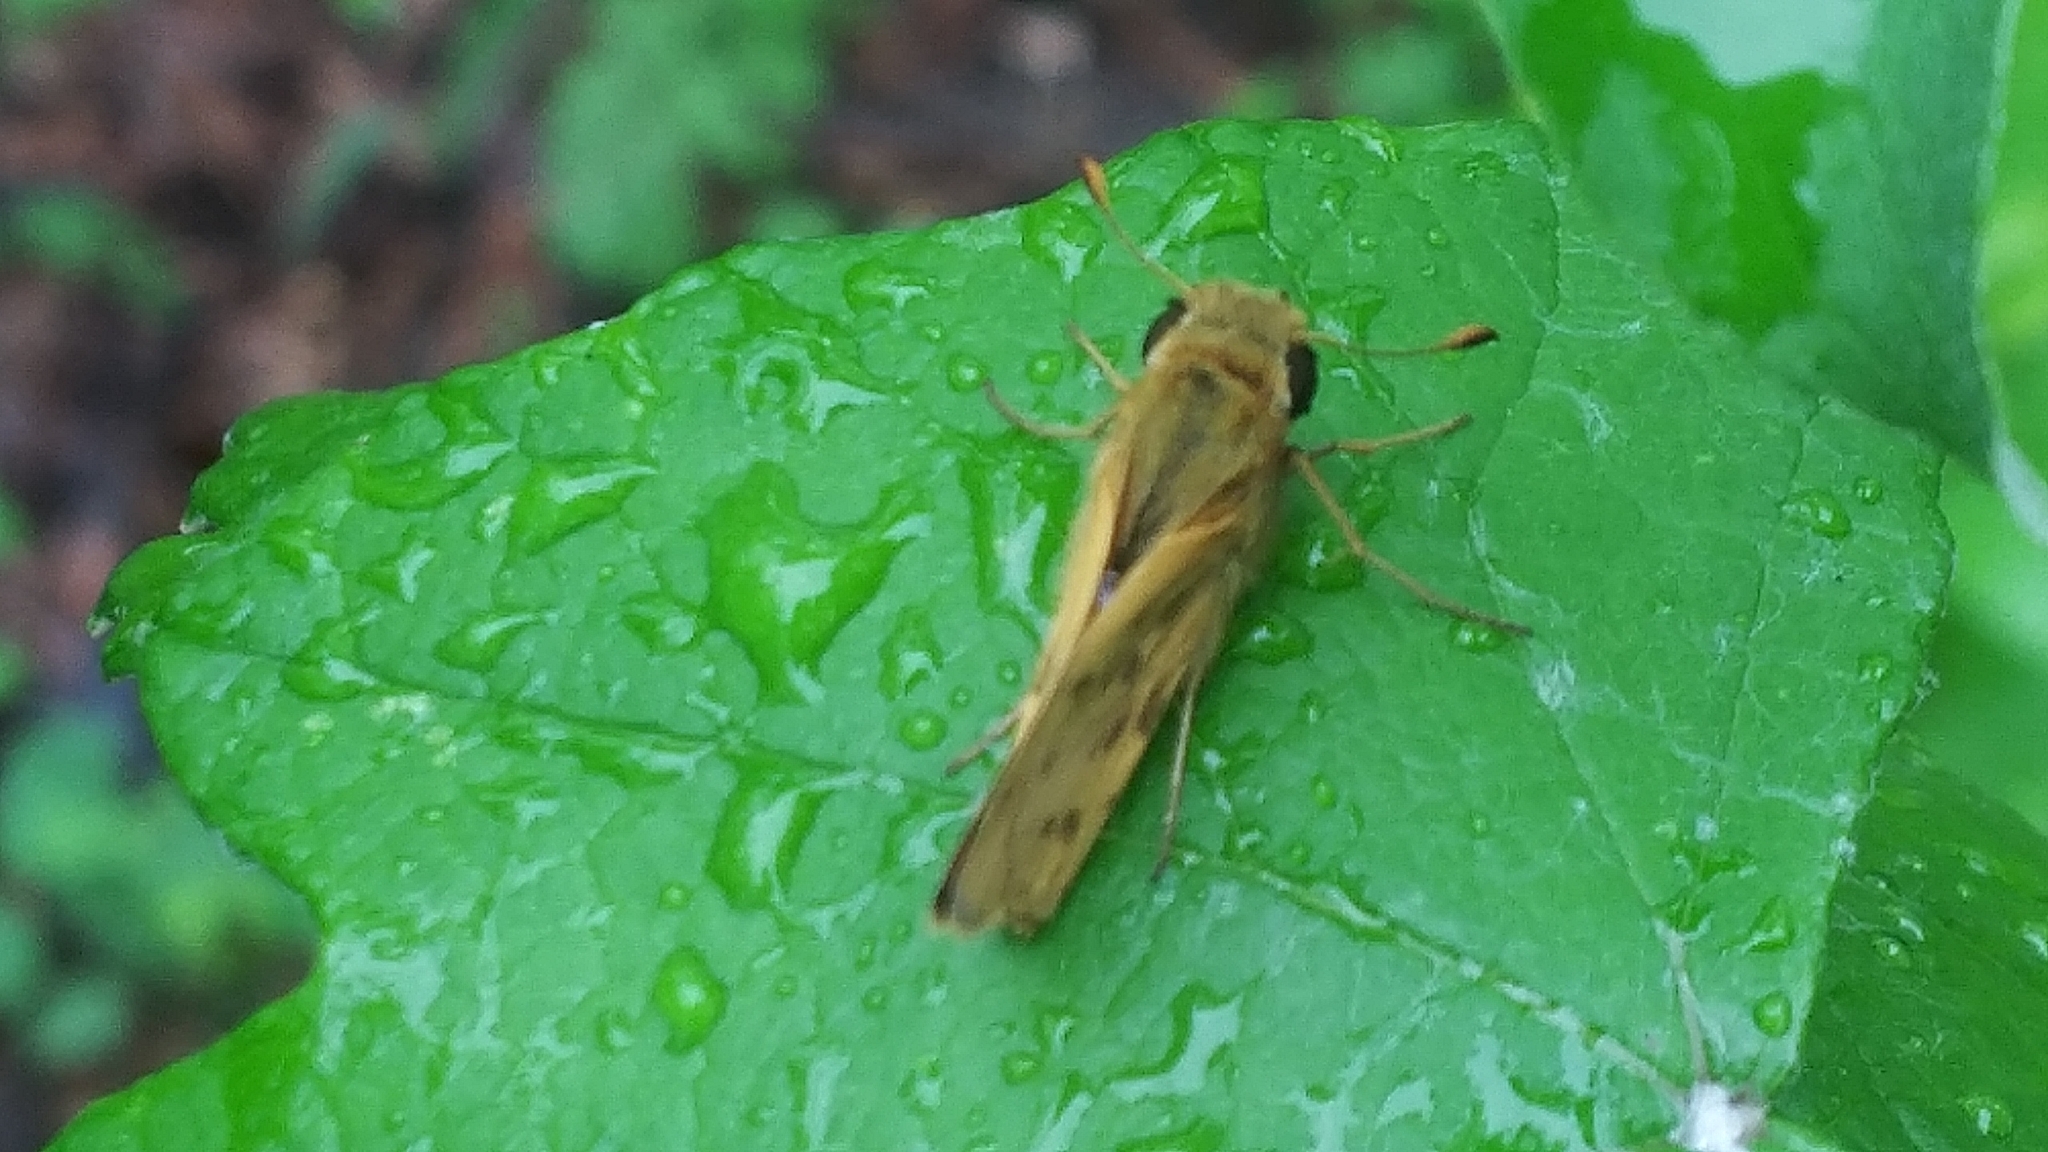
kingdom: Animalia
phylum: Arthropoda
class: Insecta
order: Lepidoptera
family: Hesperiidae
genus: Hylephila
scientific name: Hylephila phyleus
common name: Fiery skipper
